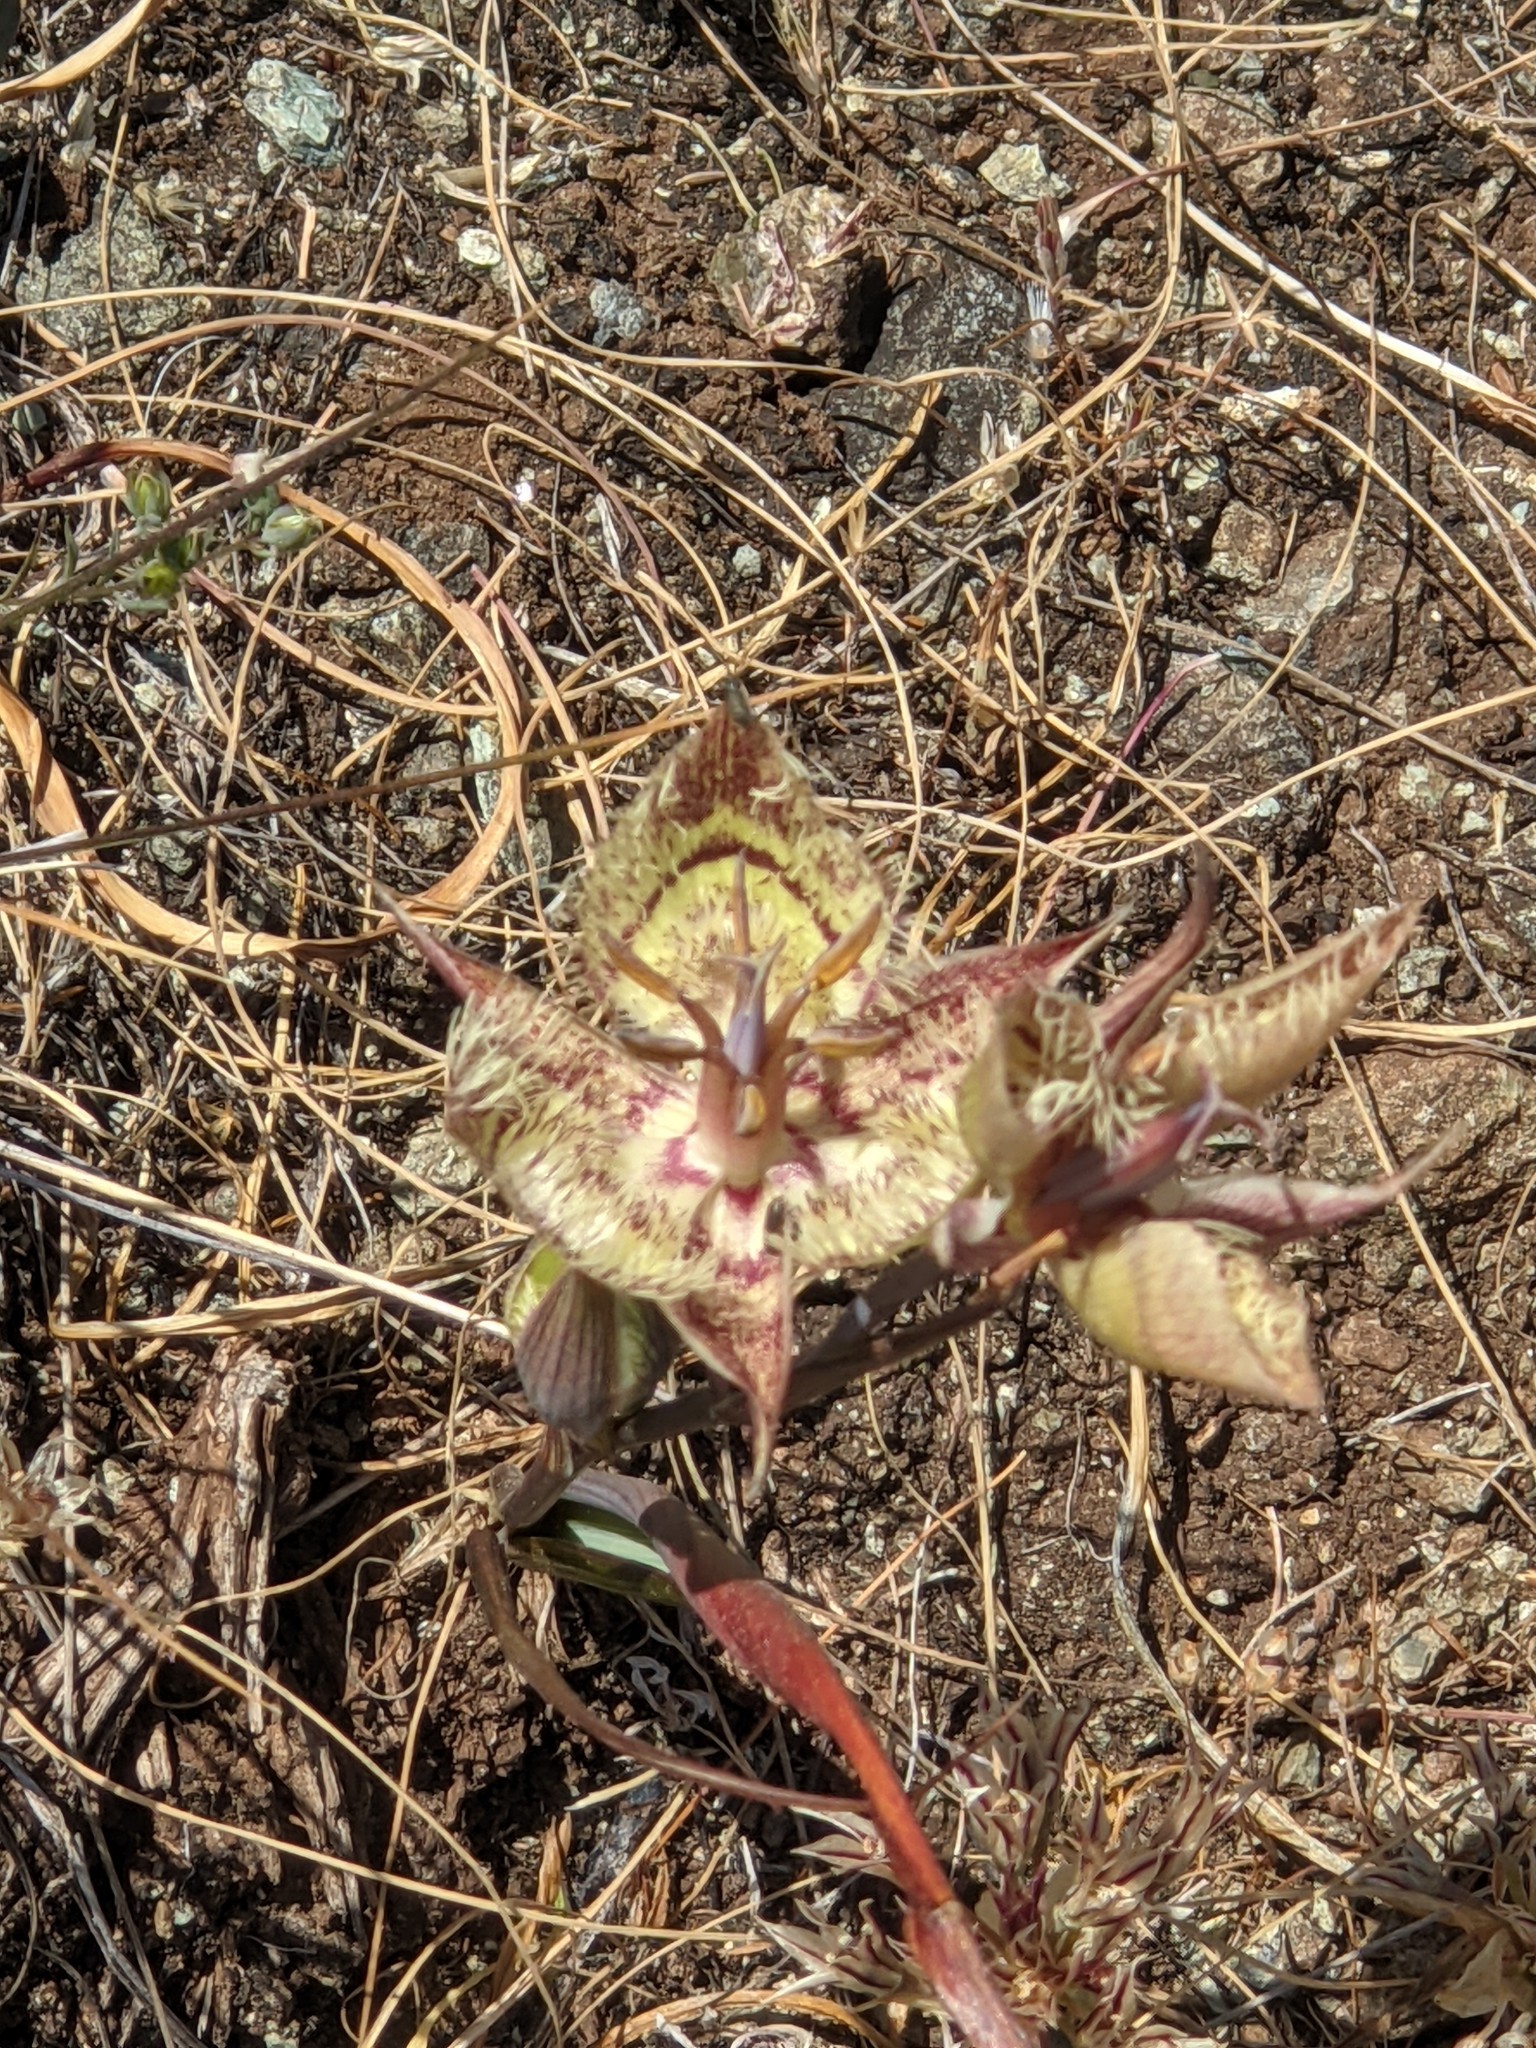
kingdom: Plantae
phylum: Tracheophyta
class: Liliopsida
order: Liliales
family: Liliaceae
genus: Calochortus
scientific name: Calochortus tiburonensis
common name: Tiburon mariposa-lily
